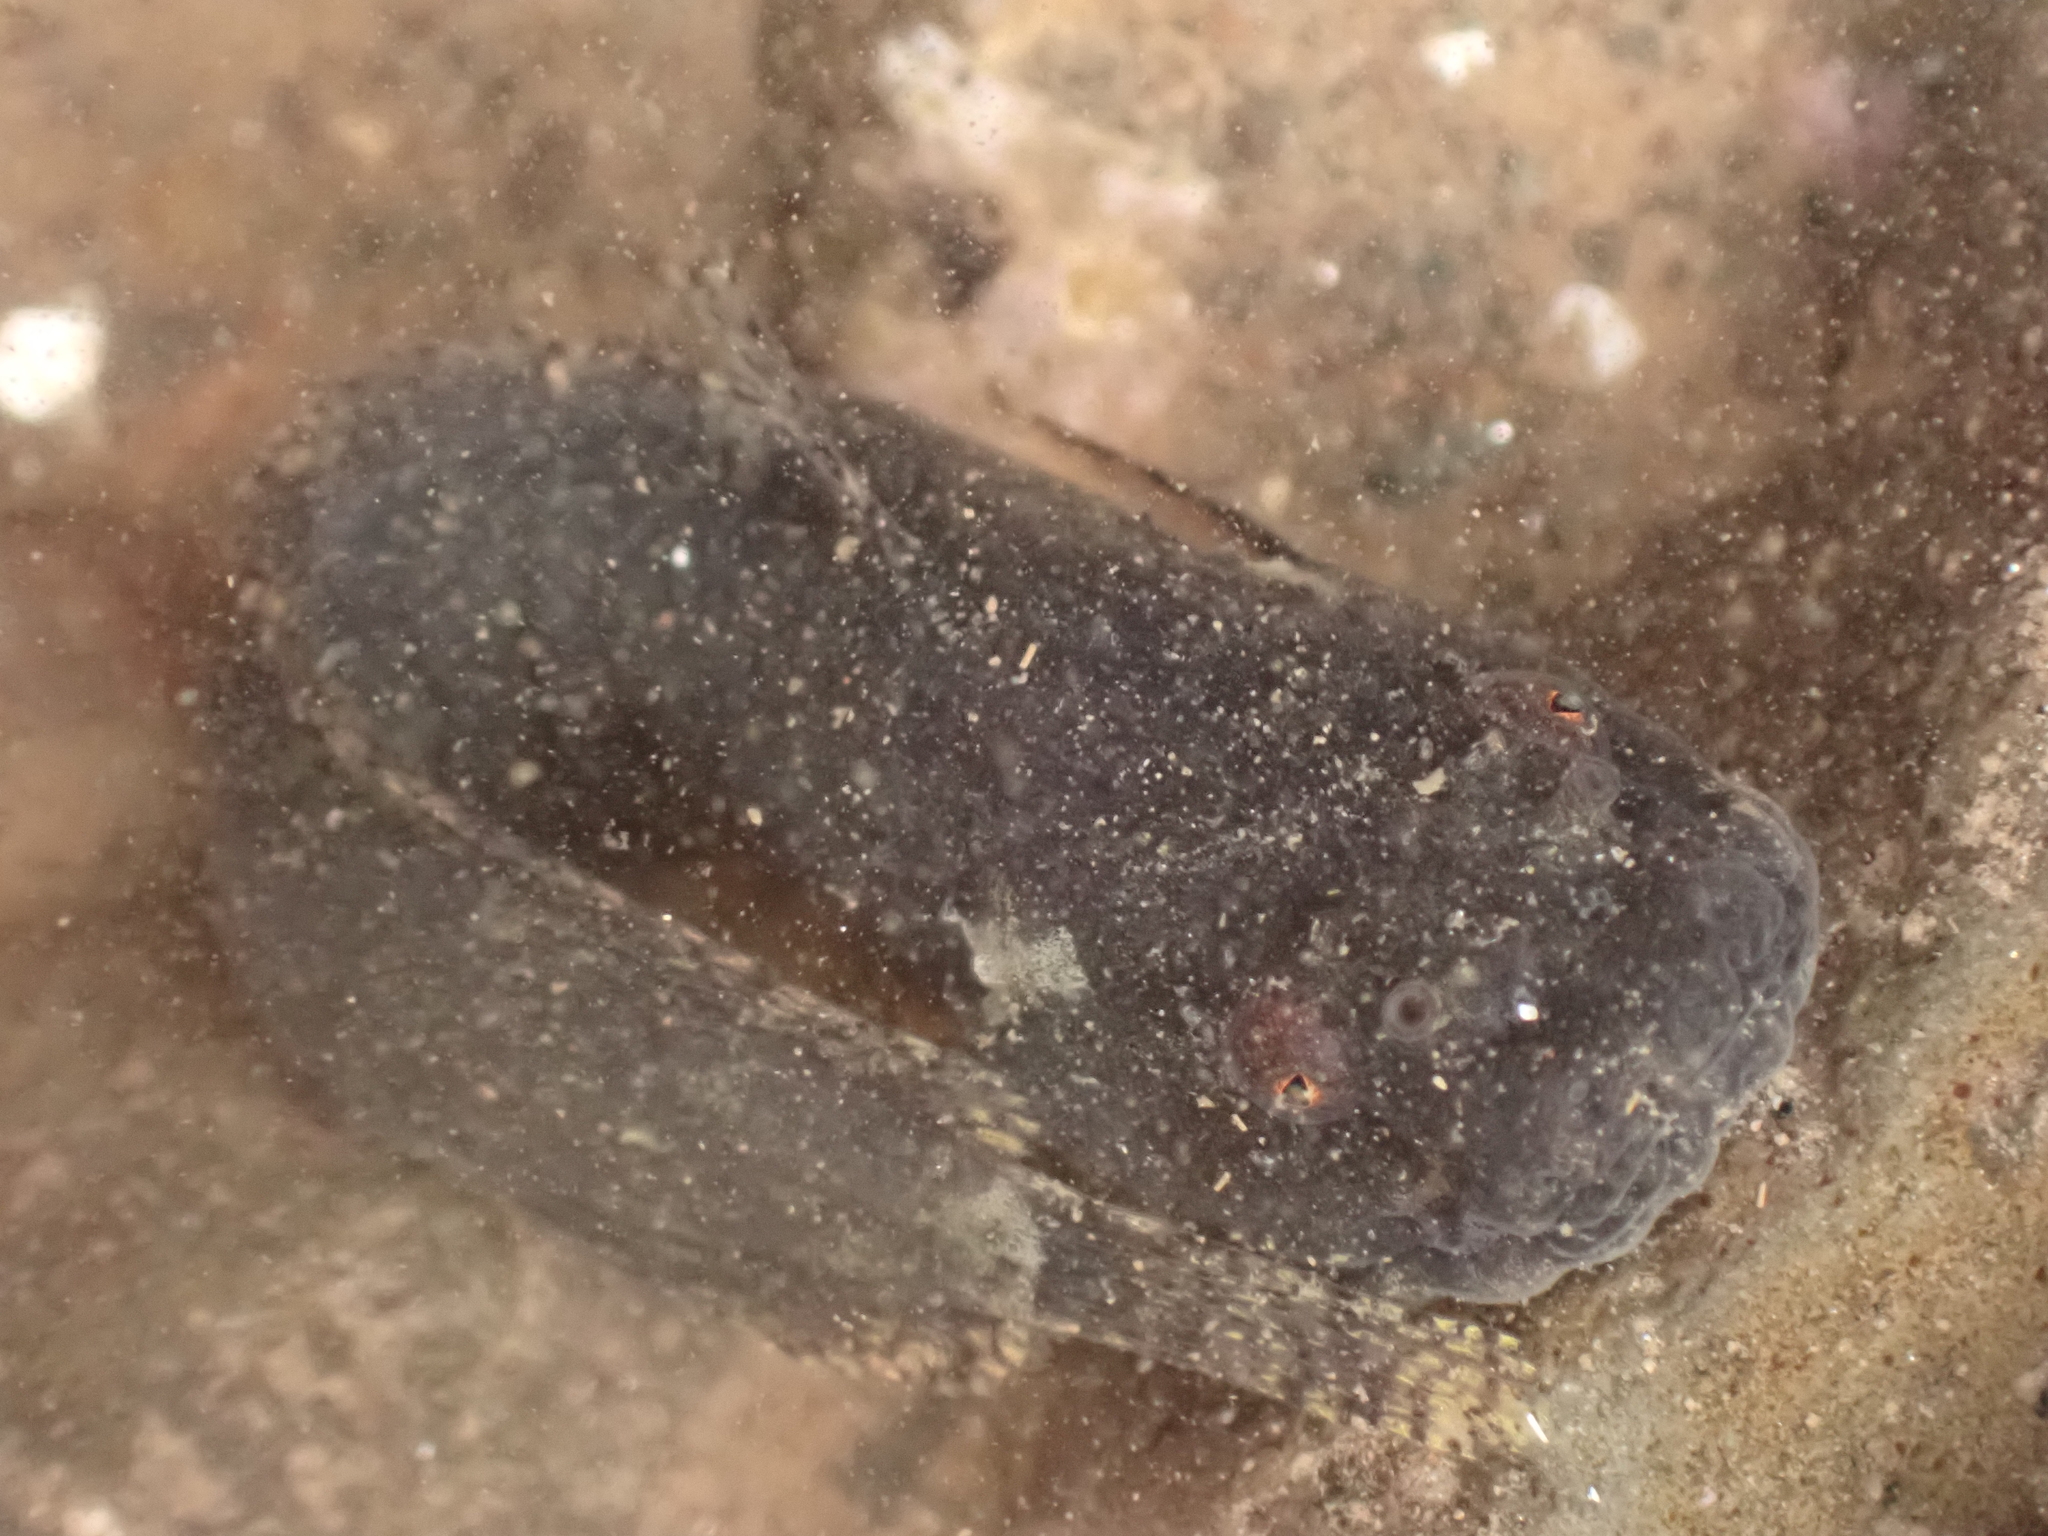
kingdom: Animalia
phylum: Chordata
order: Scorpaeniformes
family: Liparidae
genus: Liparis
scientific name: Liparis atlanticus
